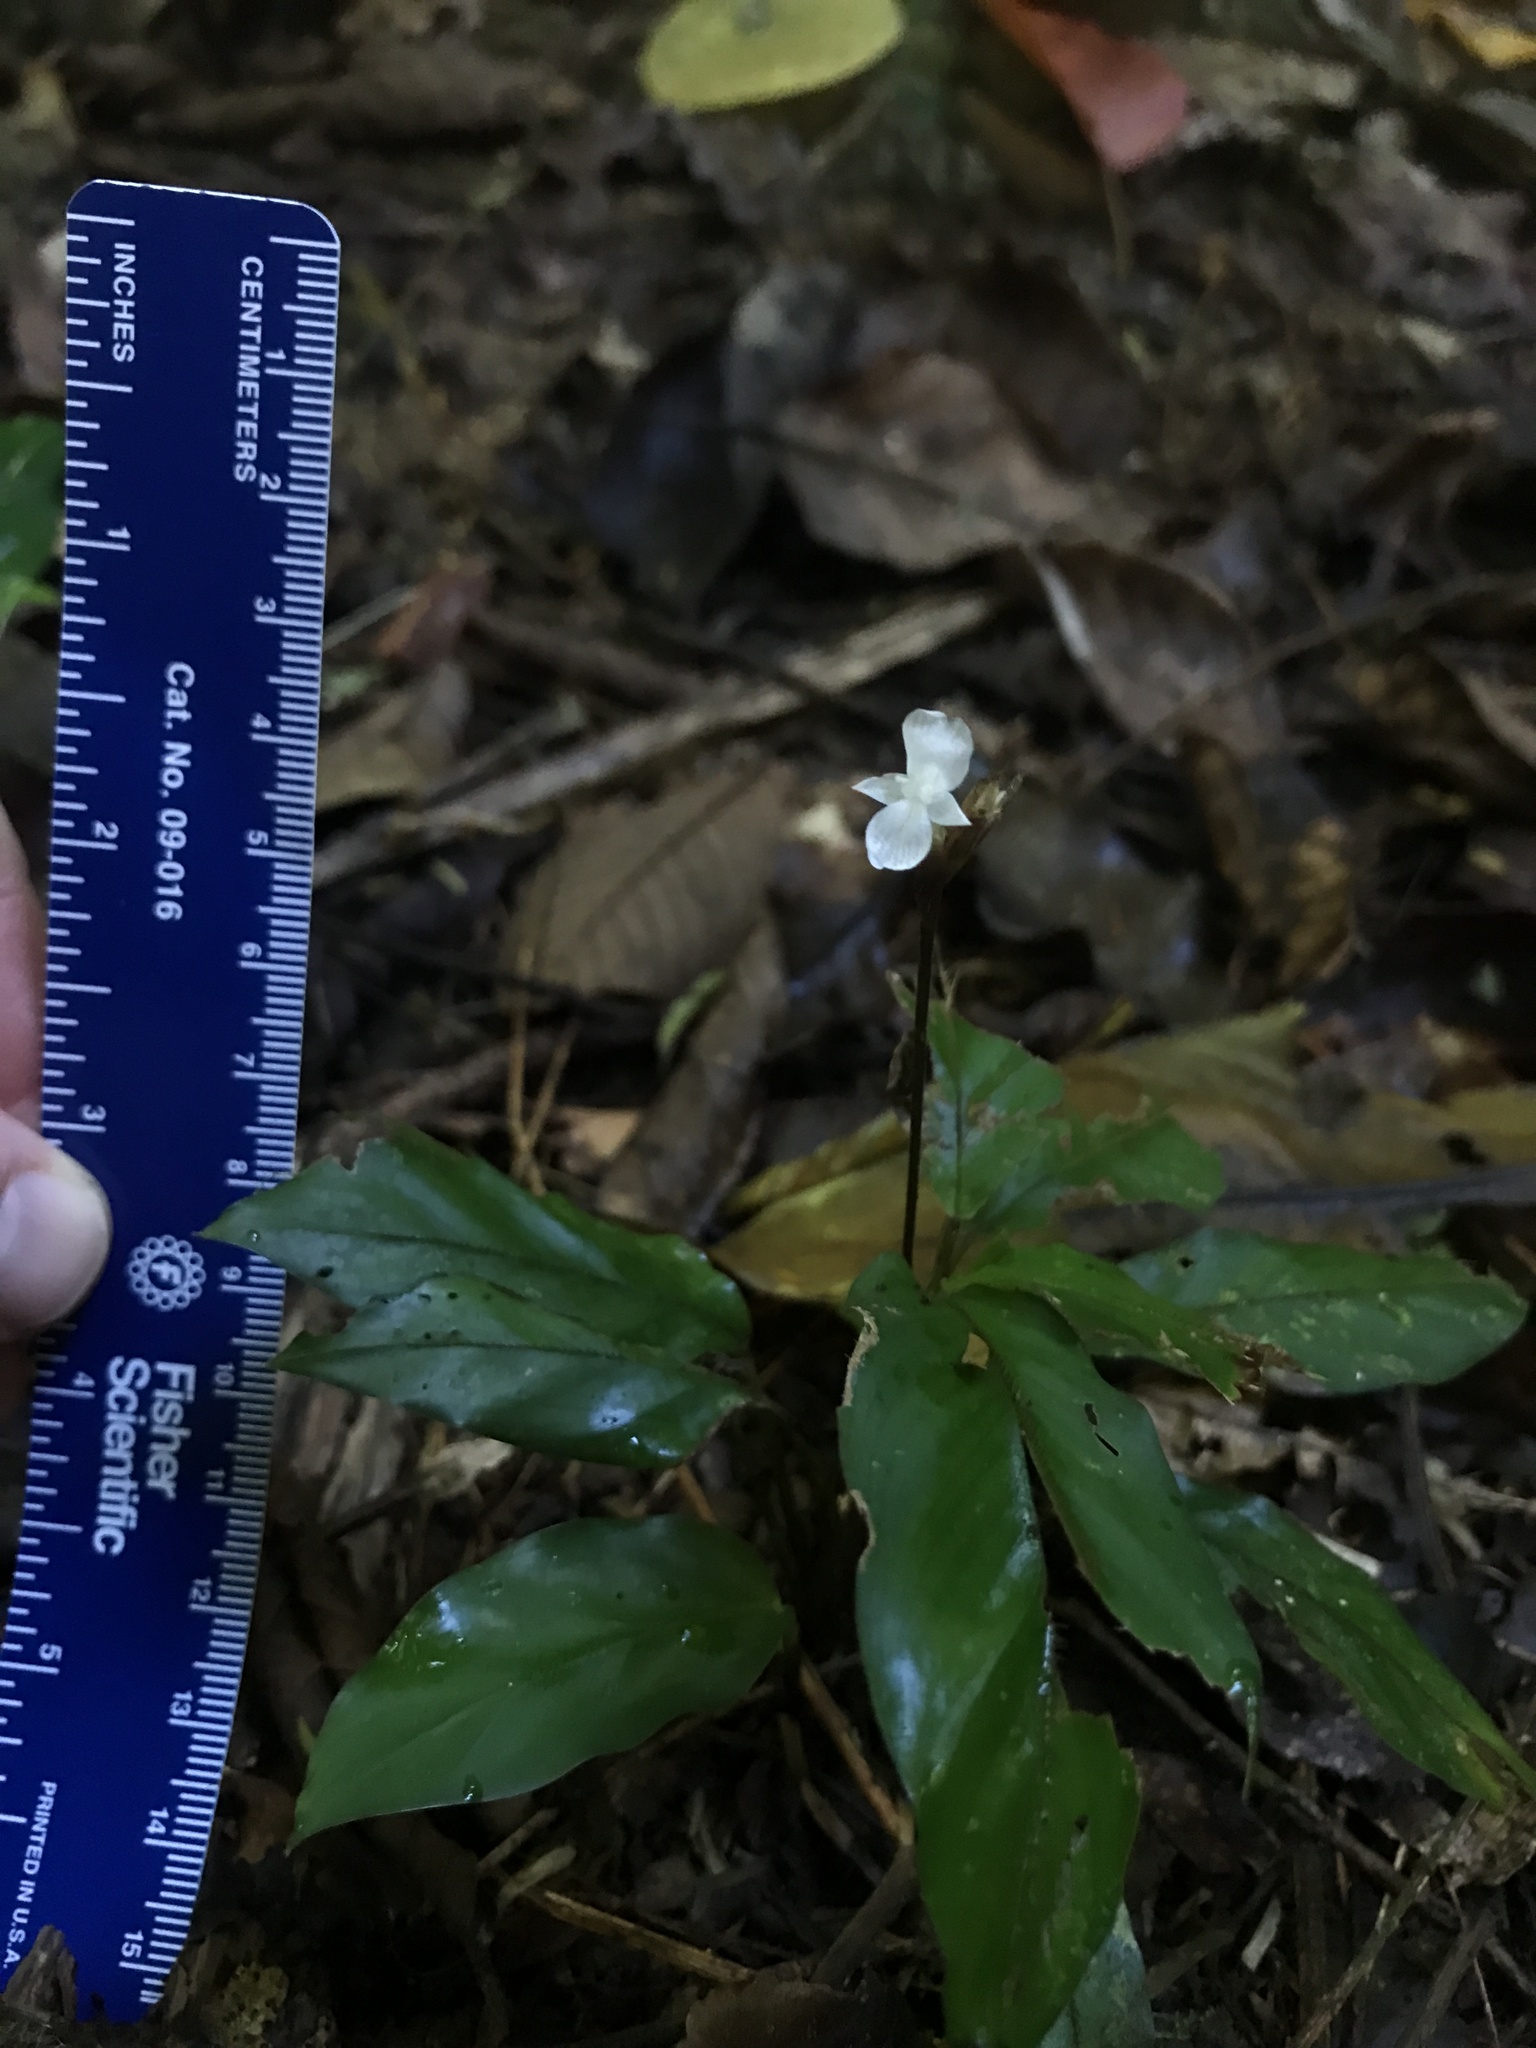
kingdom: Plantae
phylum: Tracheophyta
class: Liliopsida
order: Zingiberales
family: Marantaceae
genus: Goeppertia
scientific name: Goeppertia micans
